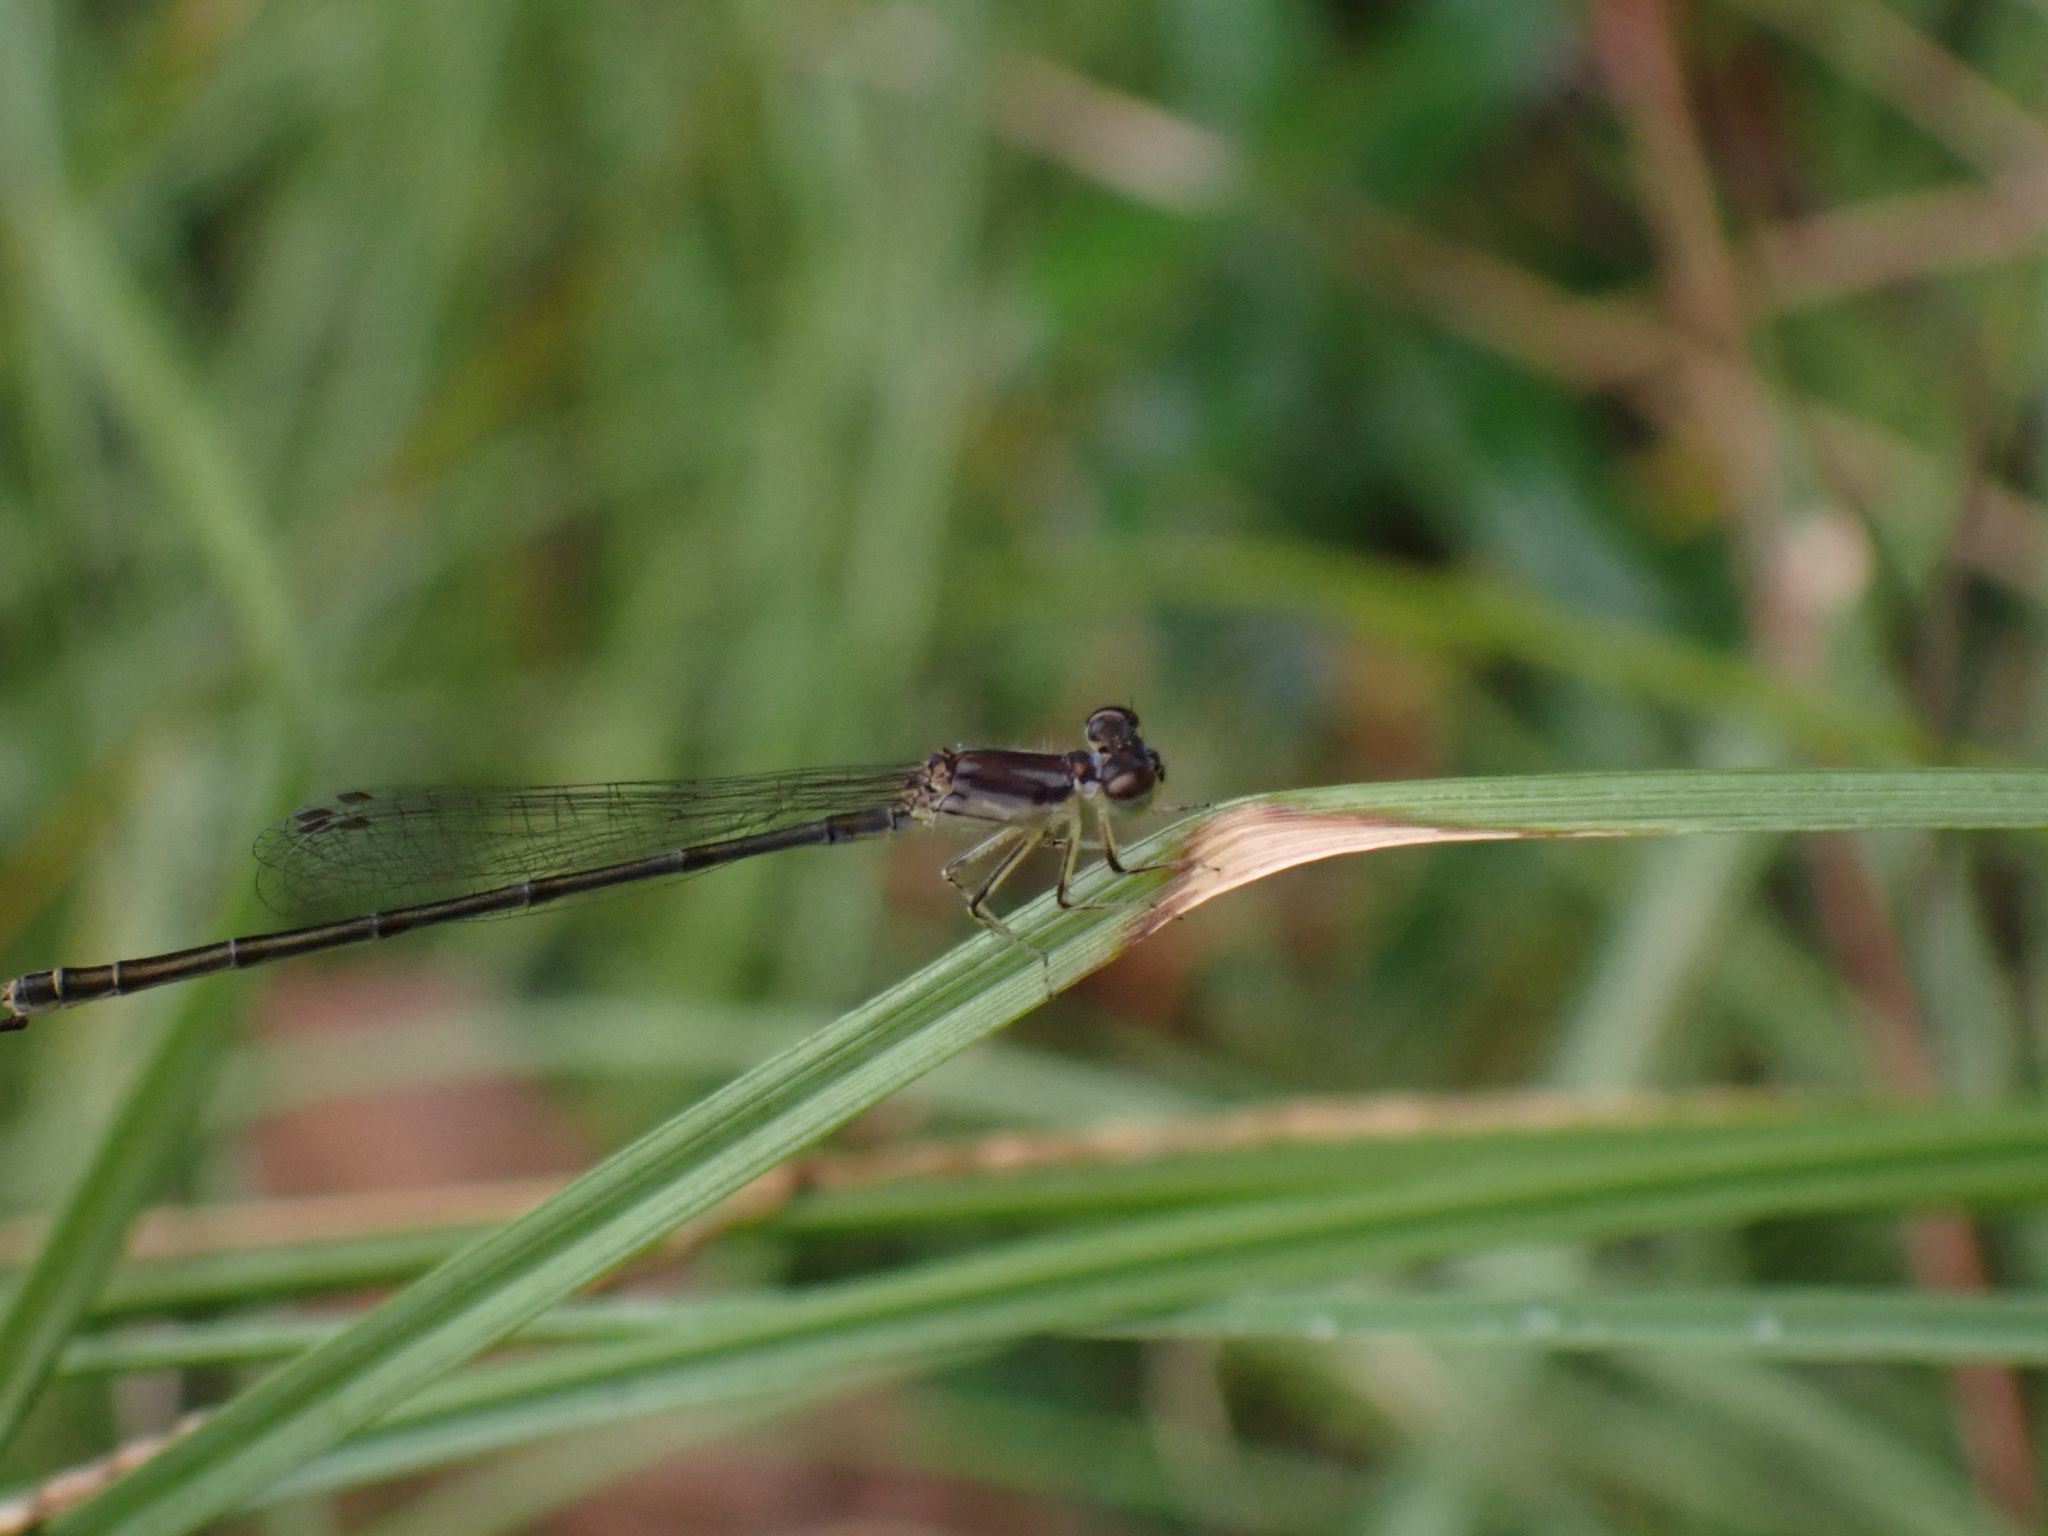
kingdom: Animalia
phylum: Arthropoda
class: Insecta
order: Odonata
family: Coenagrionidae
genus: Ischnura
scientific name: Ischnura posita
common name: Fragile forktail
